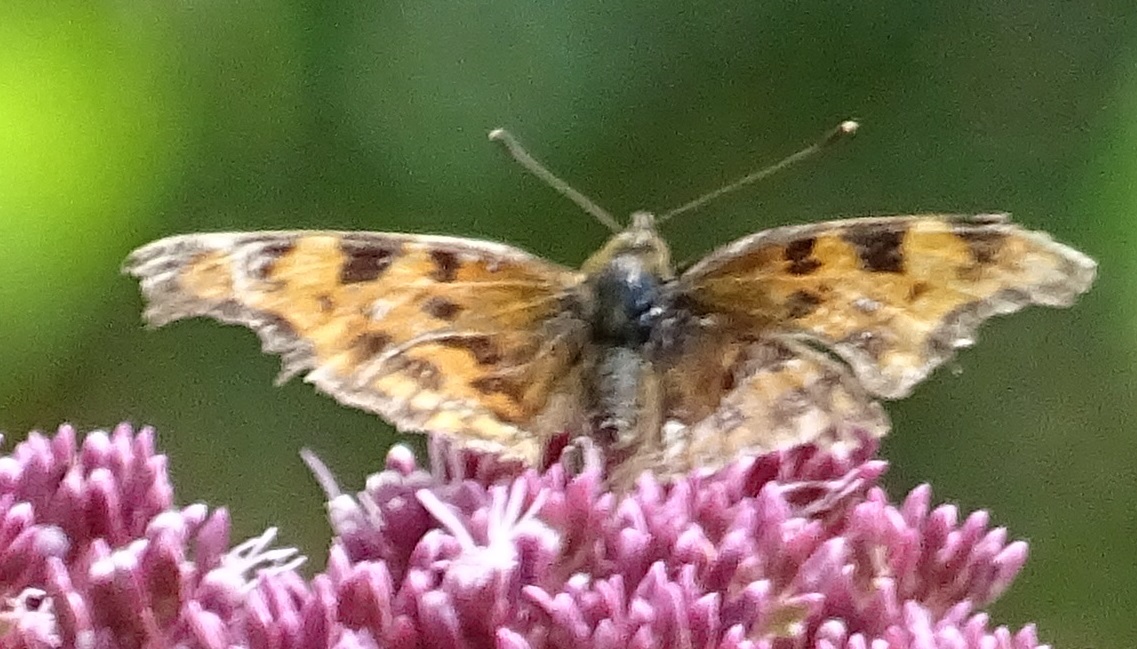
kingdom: Animalia
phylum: Arthropoda
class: Insecta
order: Lepidoptera
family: Nymphalidae
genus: Polygonia
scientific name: Polygonia c-album
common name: Comma
